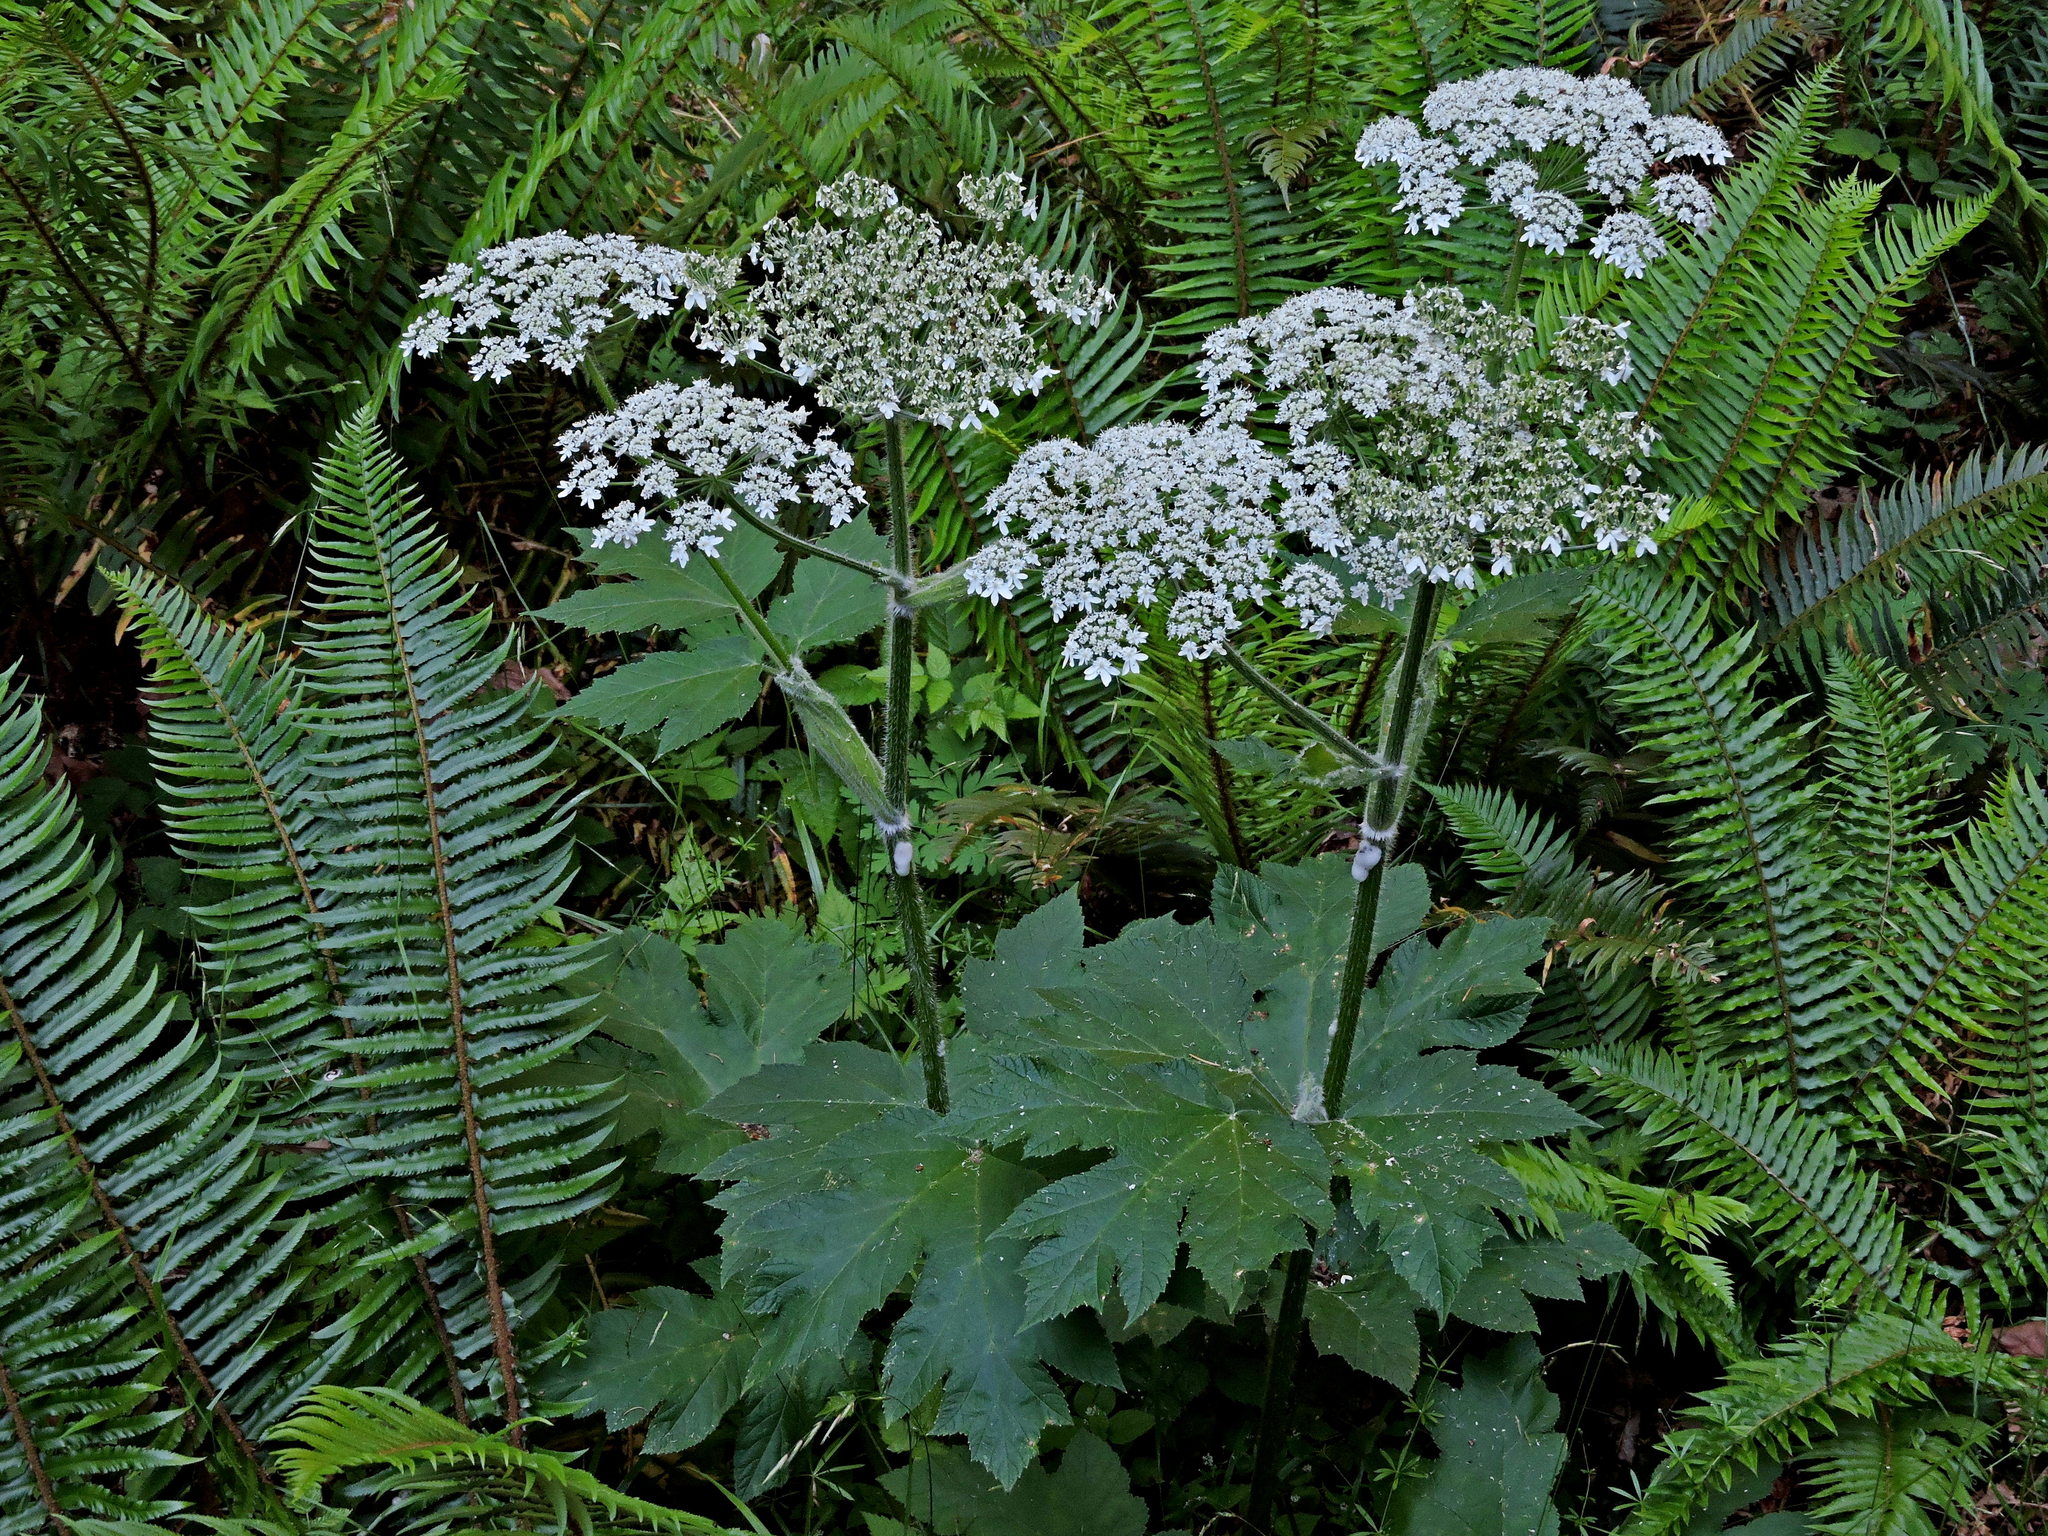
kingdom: Plantae
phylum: Tracheophyta
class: Magnoliopsida
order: Apiales
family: Apiaceae
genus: Heracleum
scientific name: Heracleum maximum
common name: American cow parsnip
